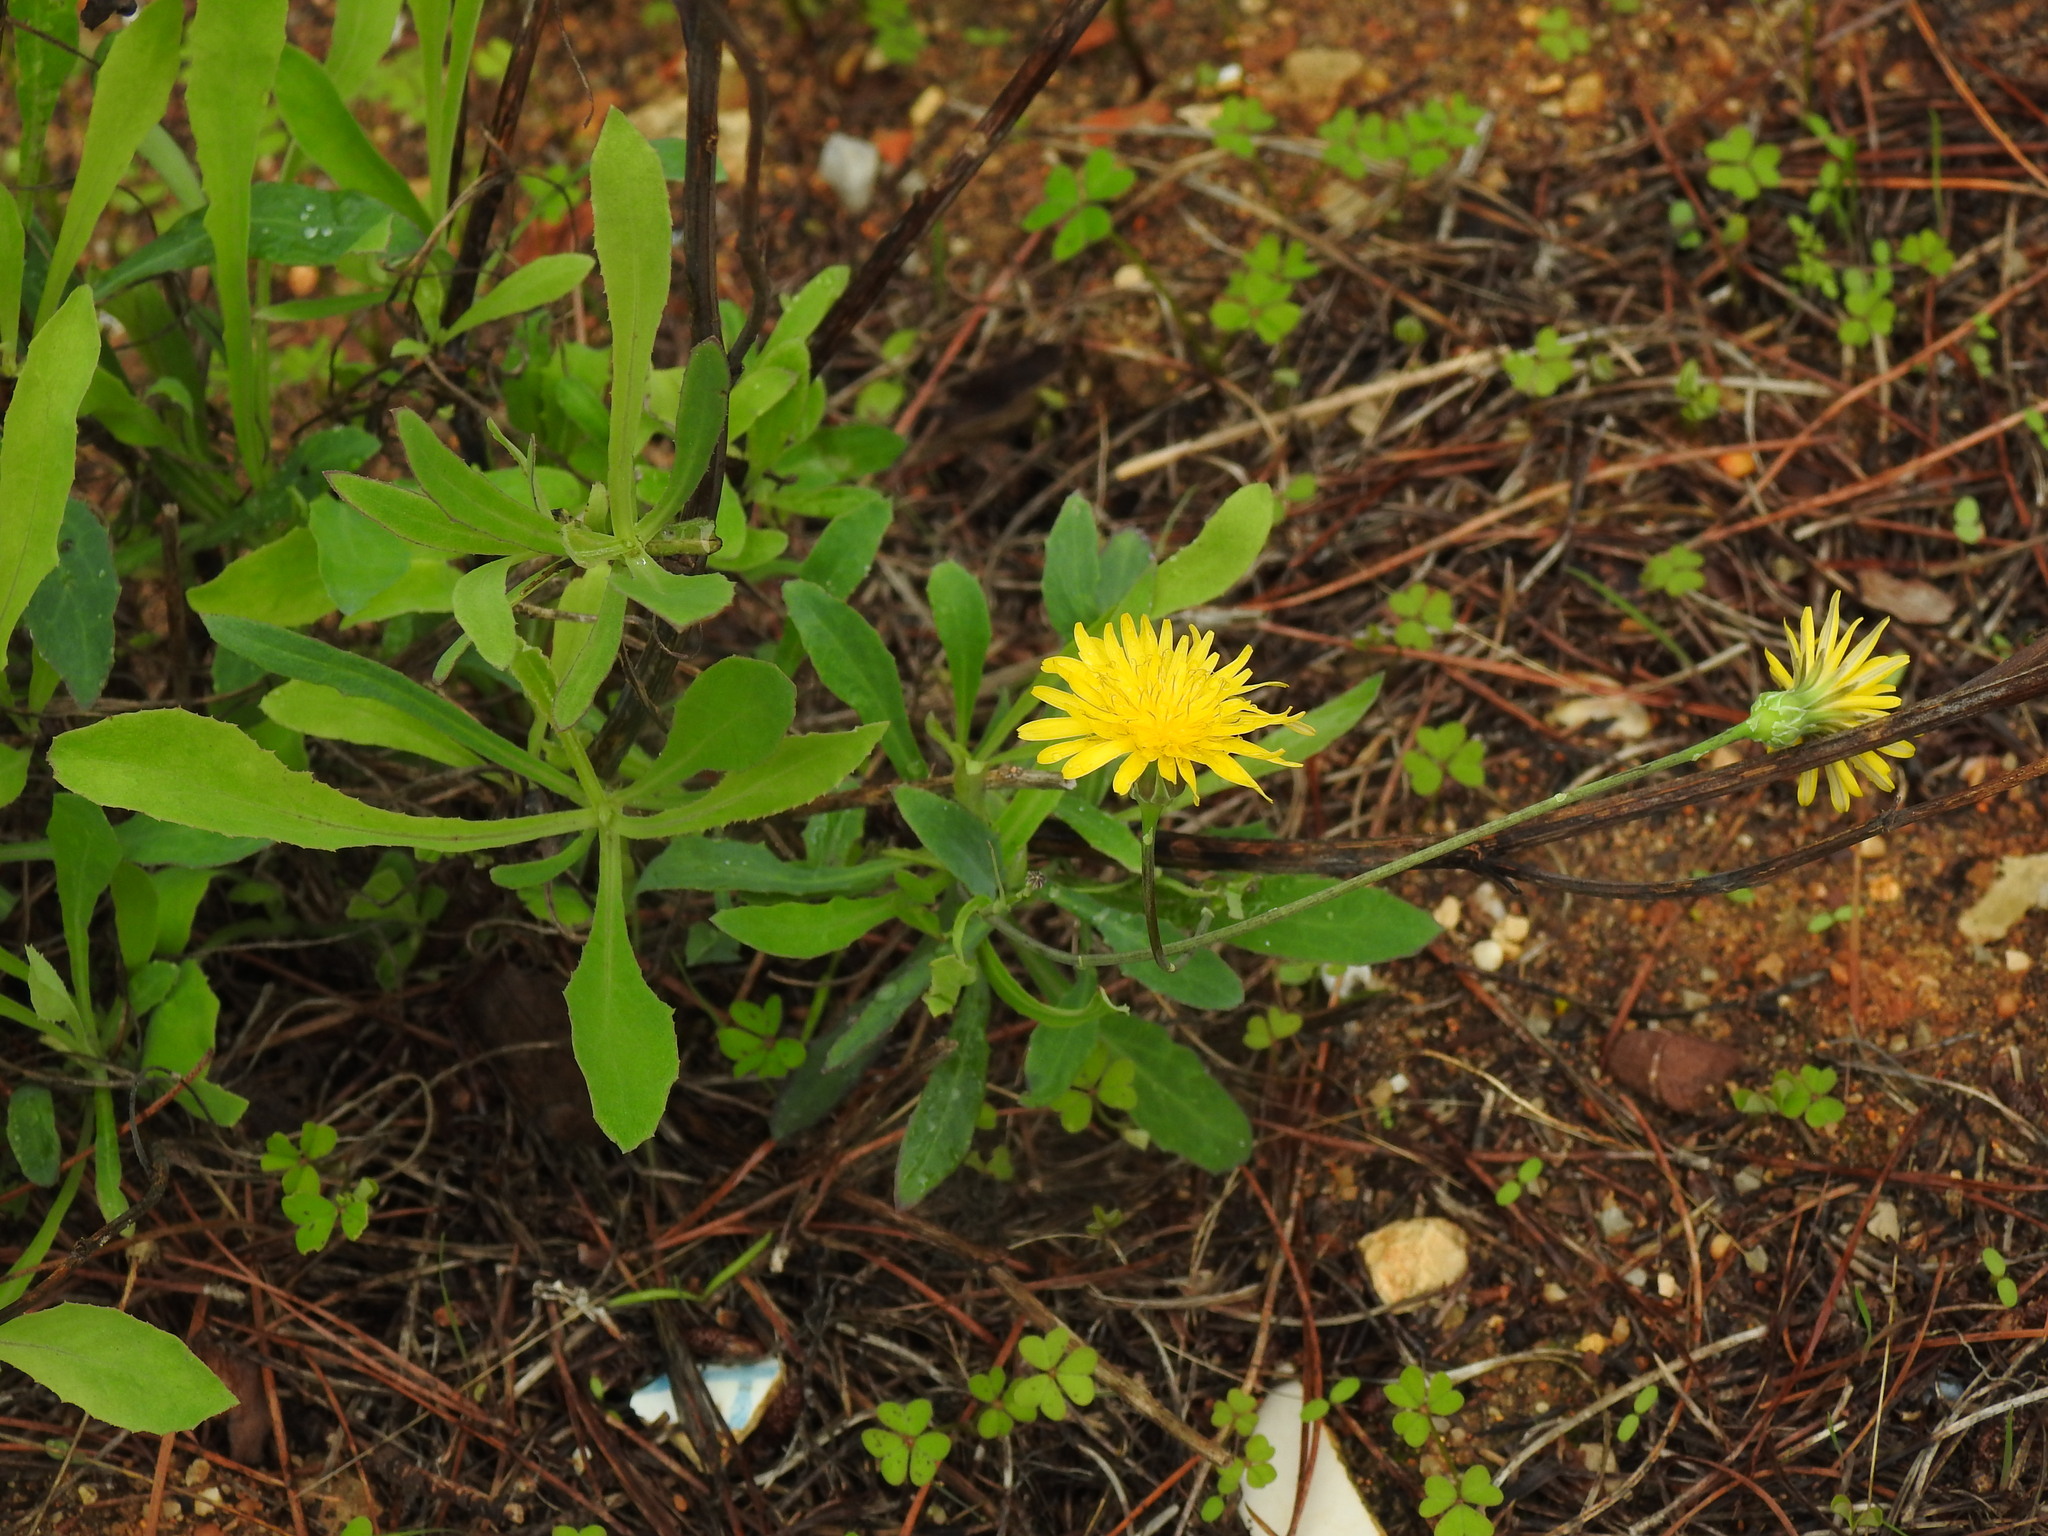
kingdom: Plantae
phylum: Tracheophyta
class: Magnoliopsida
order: Asterales
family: Asteraceae
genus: Reichardia
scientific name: Reichardia picroides
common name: Common brighteyes
